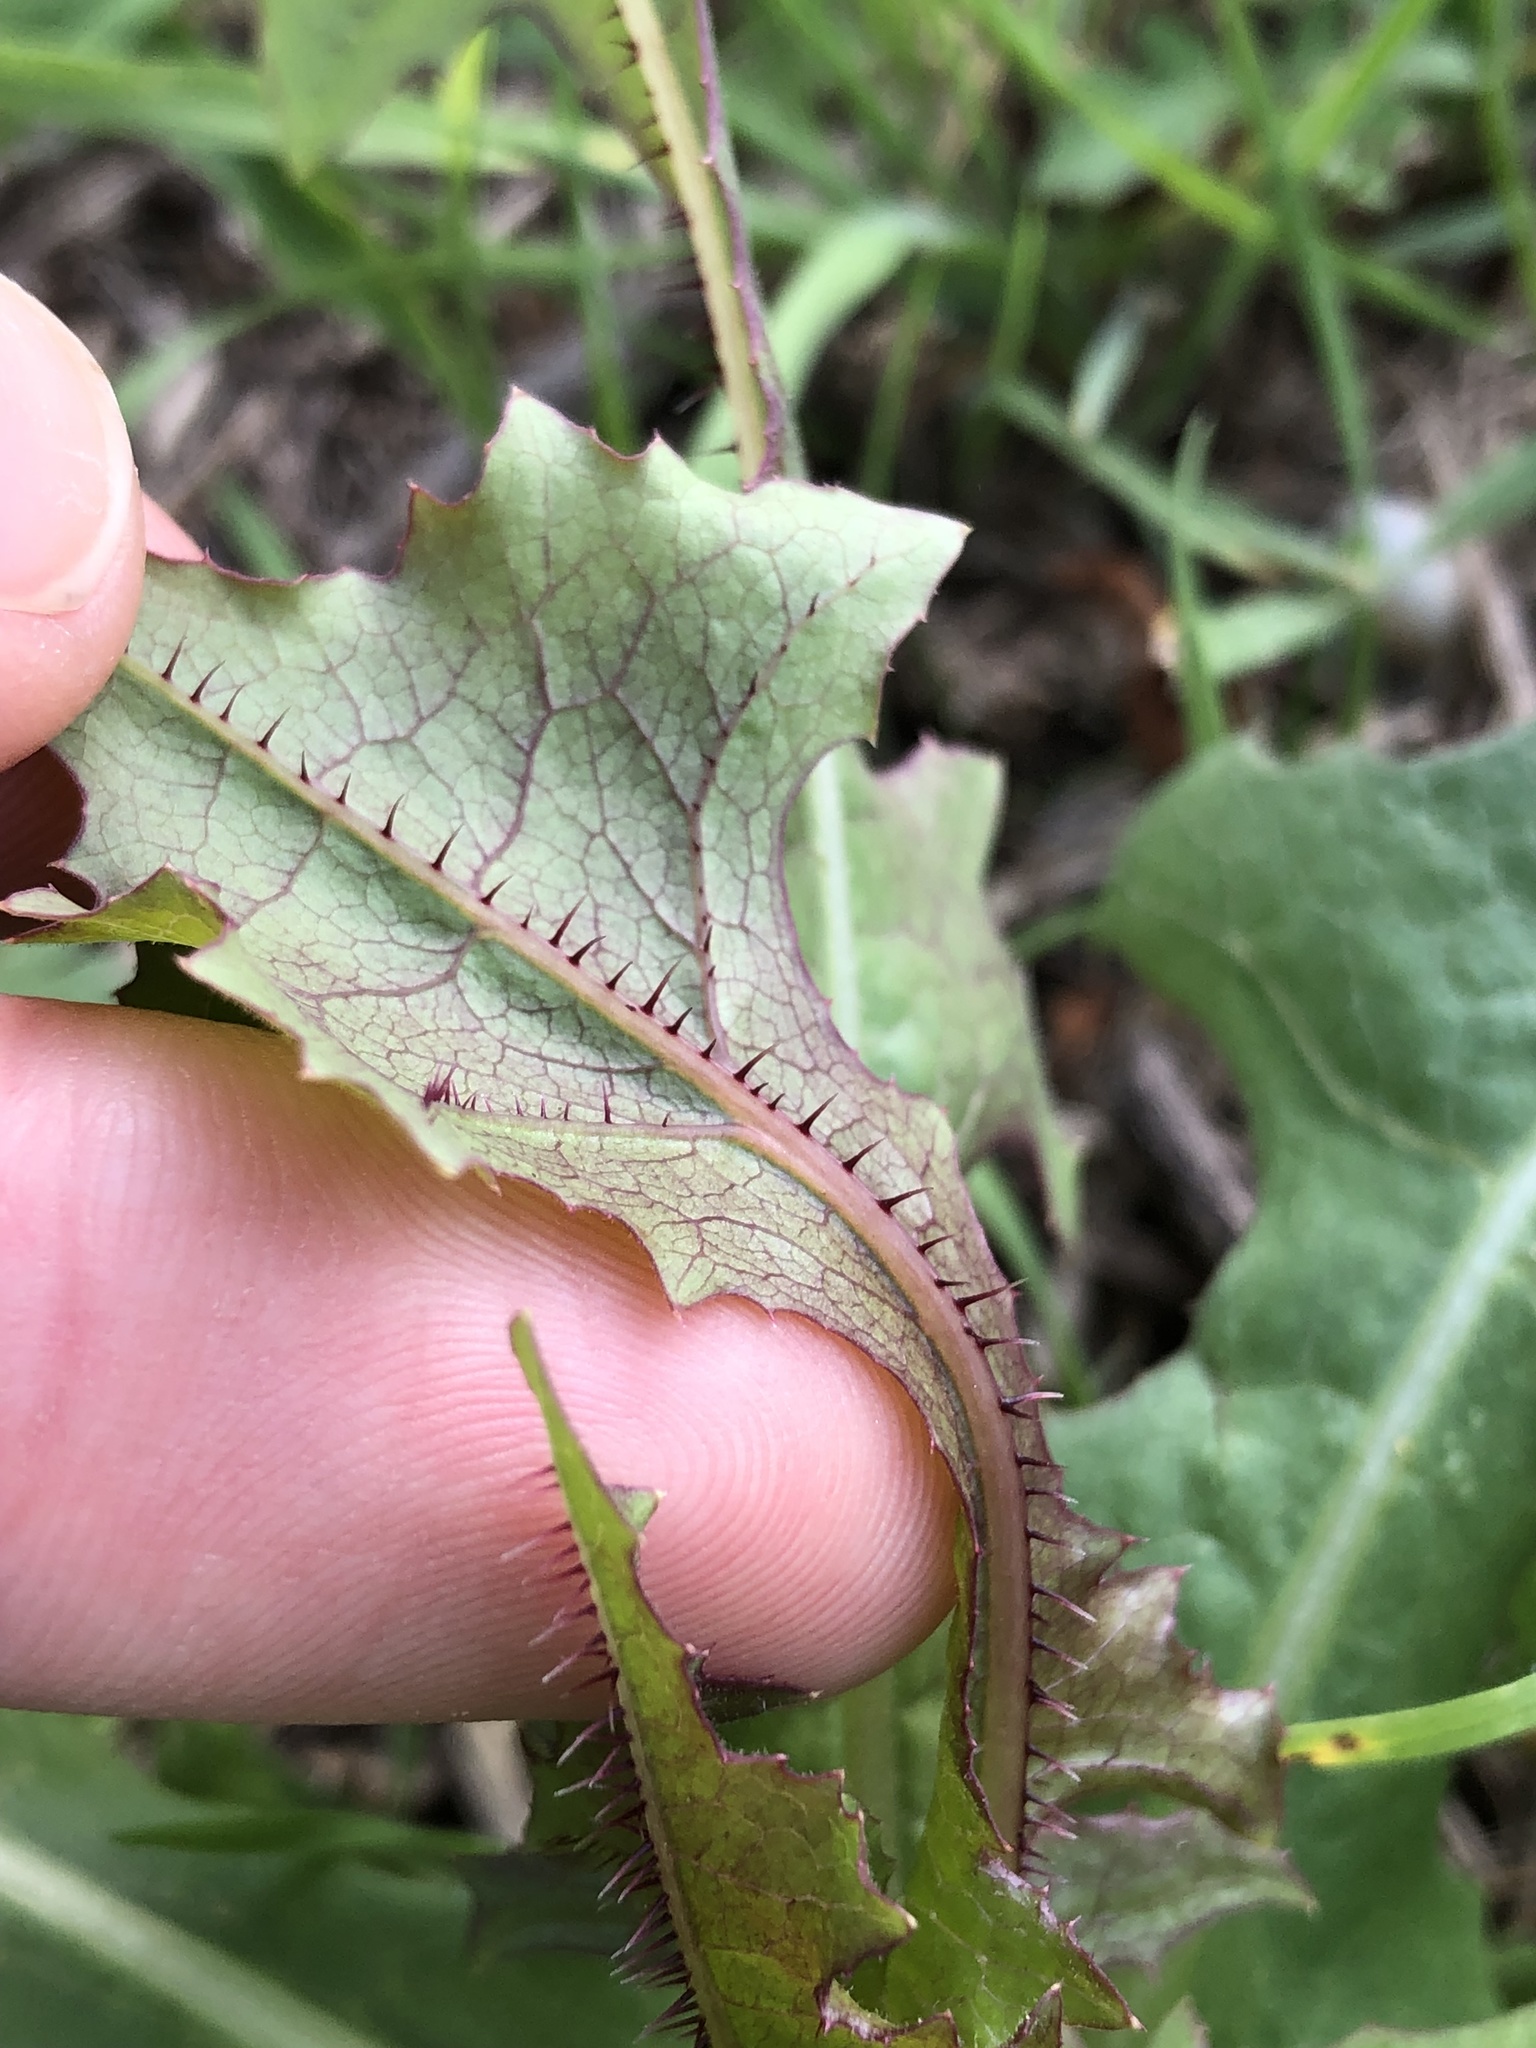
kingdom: Plantae
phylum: Tracheophyta
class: Magnoliopsida
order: Asterales
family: Asteraceae
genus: Lactuca
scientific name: Lactuca serriola
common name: Prickly lettuce
